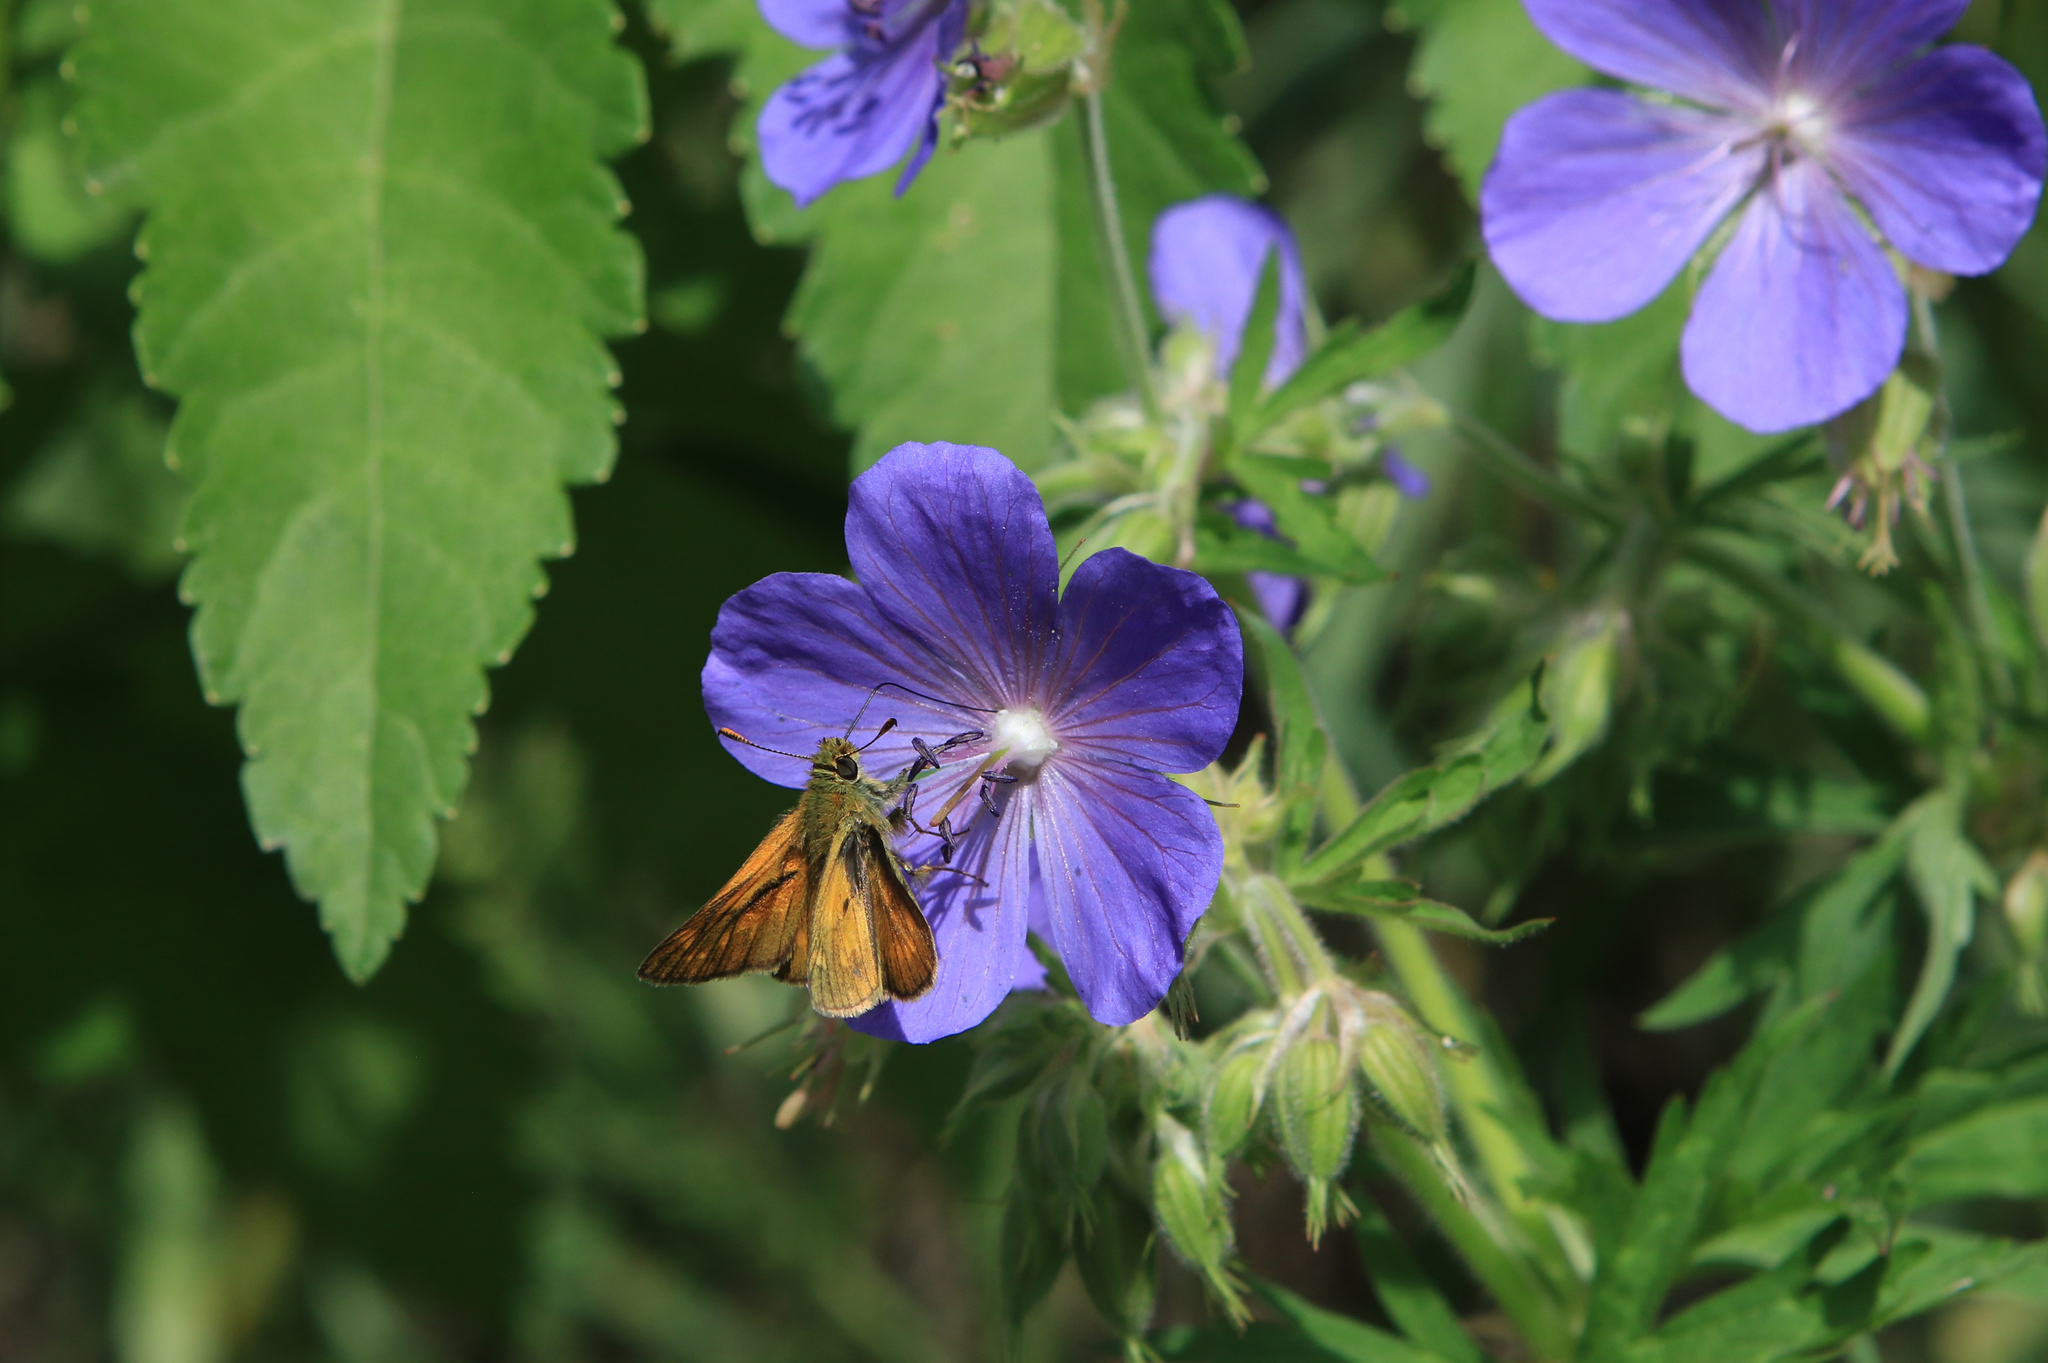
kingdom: Animalia
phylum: Arthropoda
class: Insecta
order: Lepidoptera
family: Hesperiidae
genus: Ochlodes
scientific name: Ochlodes venata
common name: Large skipper
